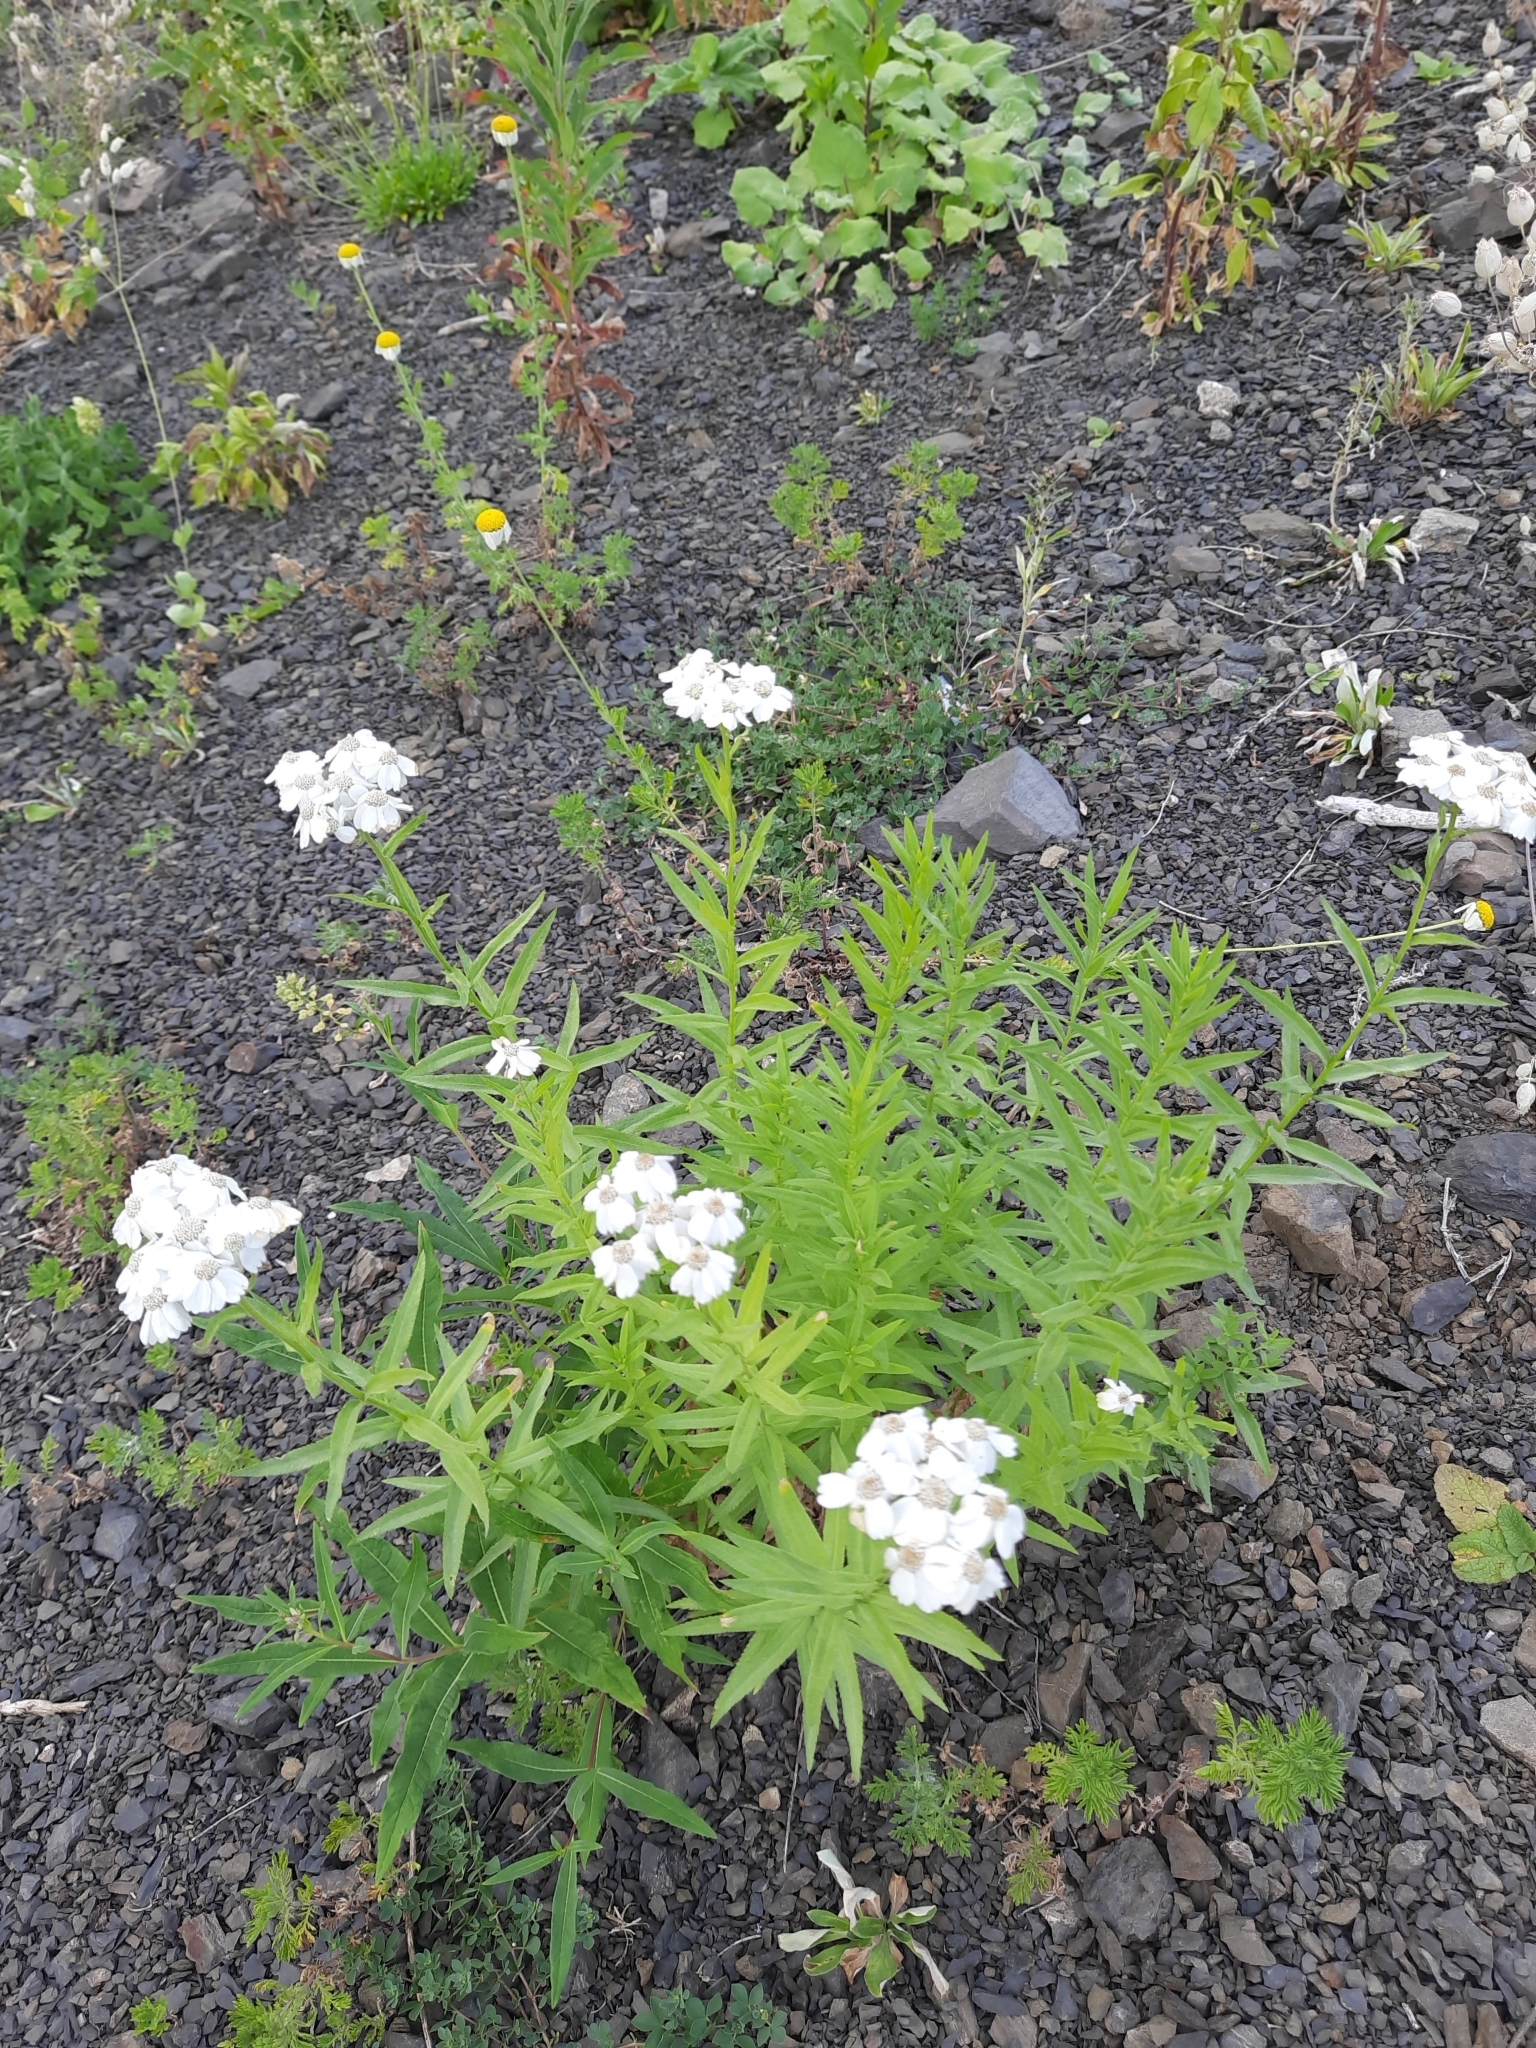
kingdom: Plantae
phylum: Tracheophyta
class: Magnoliopsida
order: Asterales
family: Asteraceae
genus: Achillea
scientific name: Achillea biserrata
